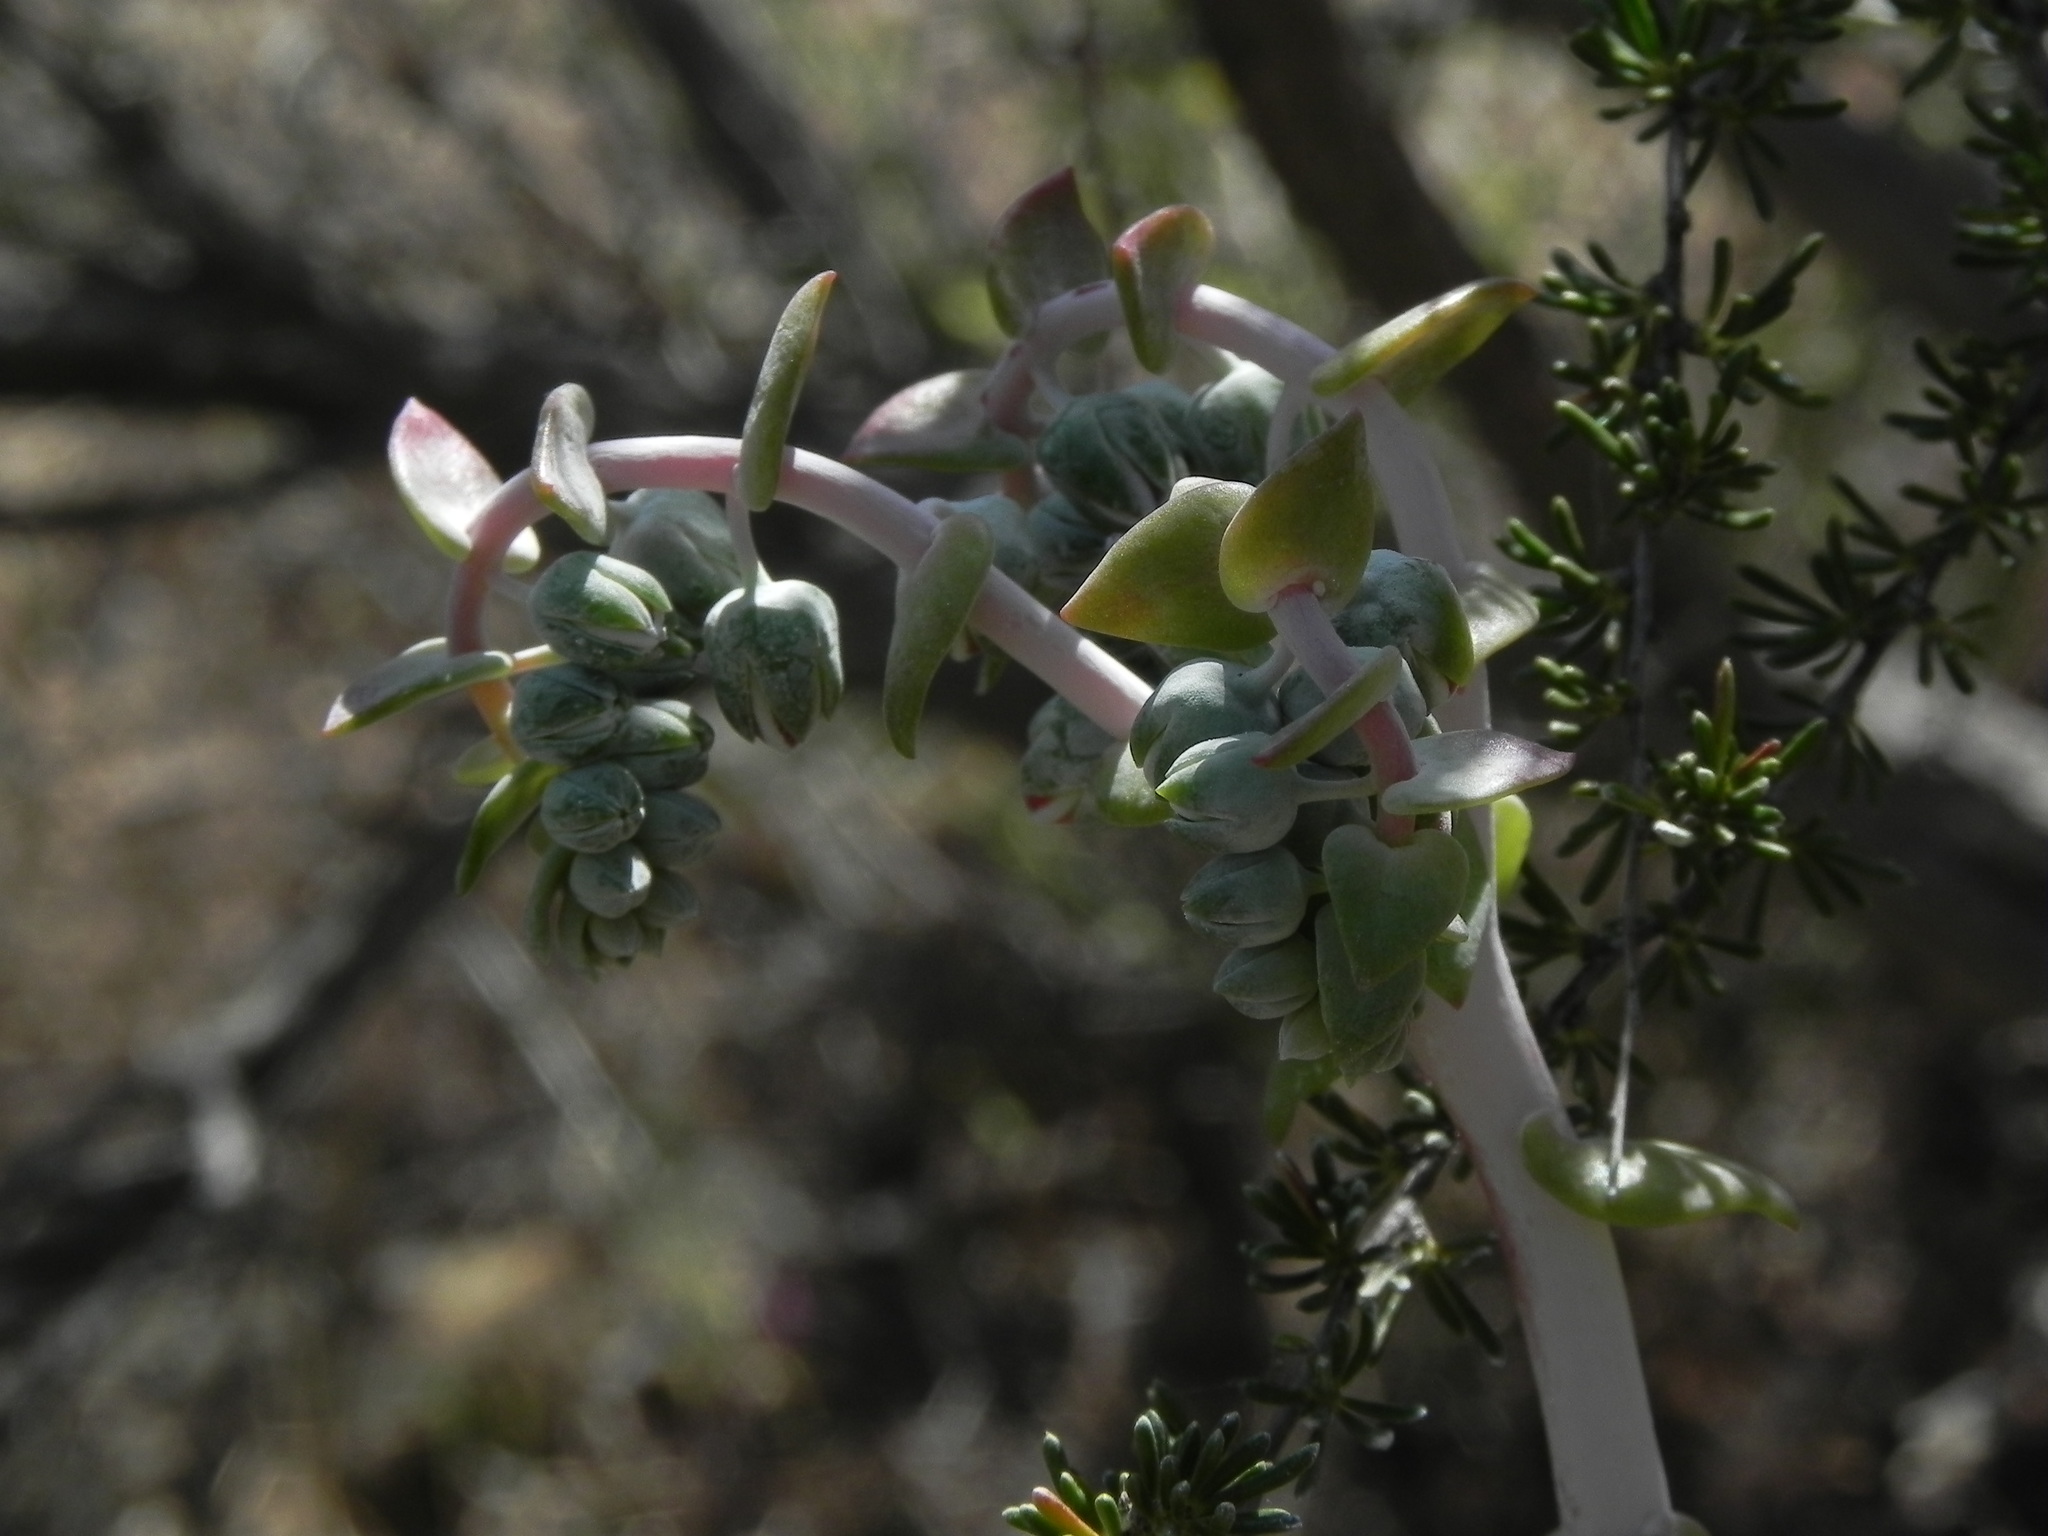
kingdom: Plantae
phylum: Tracheophyta
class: Magnoliopsida
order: Saxifragales
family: Crassulaceae
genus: Dudleya
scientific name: Dudleya pulverulenta
